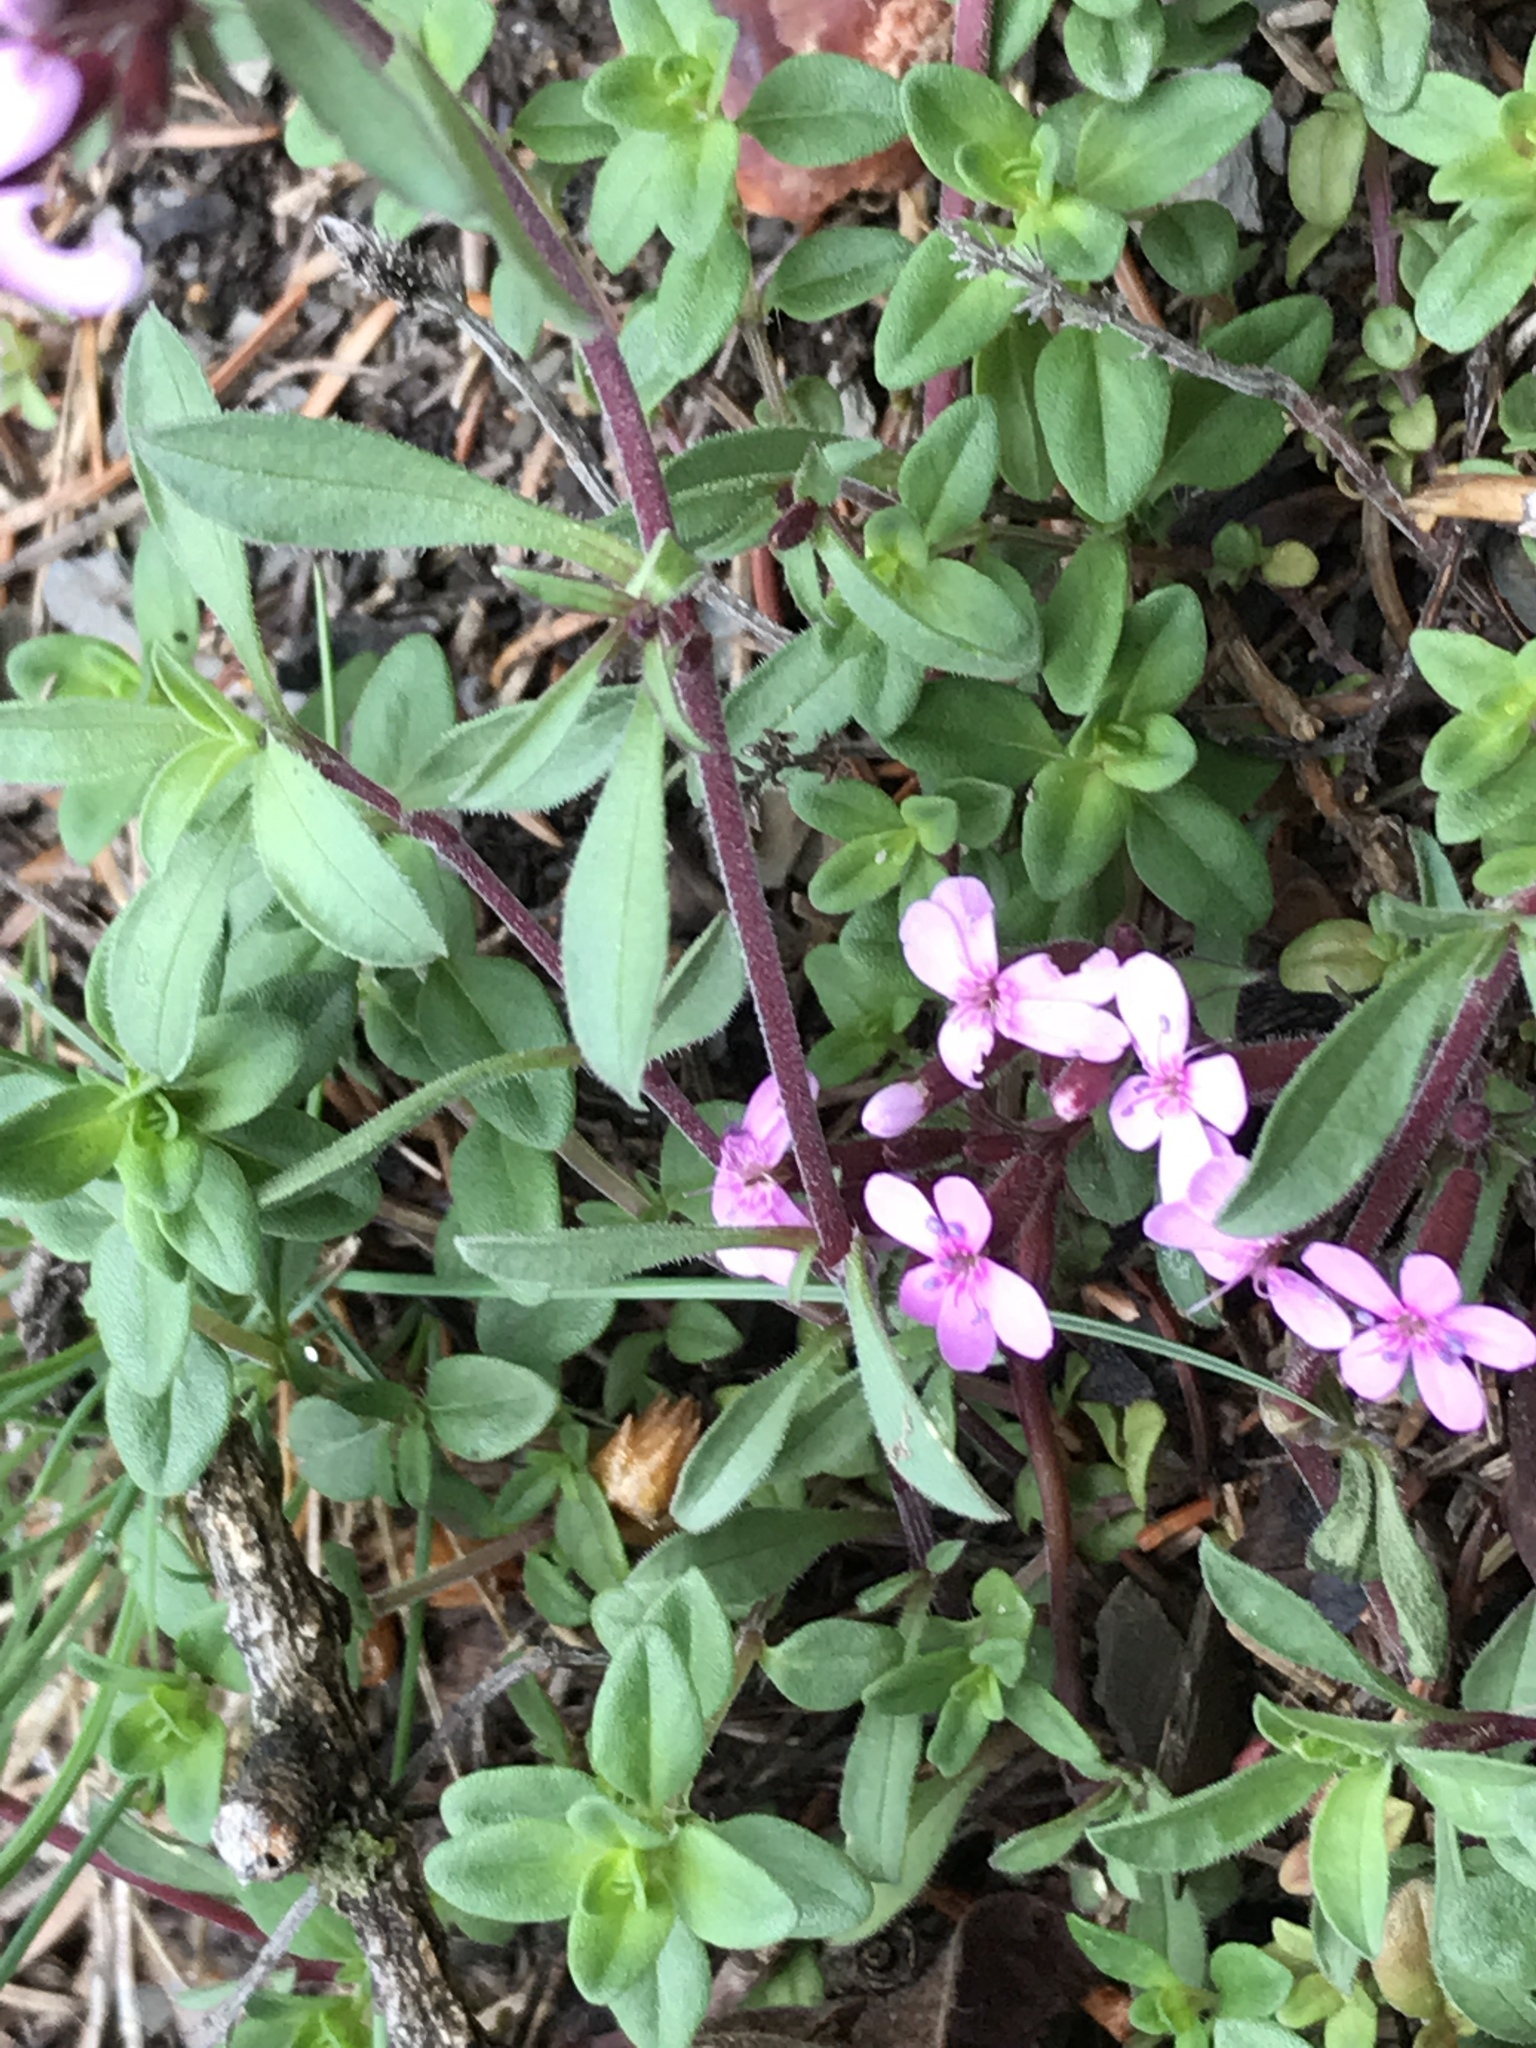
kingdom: Plantae
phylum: Tracheophyta
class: Magnoliopsida
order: Caryophyllales
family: Caryophyllaceae
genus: Saponaria
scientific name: Saponaria ocymoides
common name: Rock soapwort
